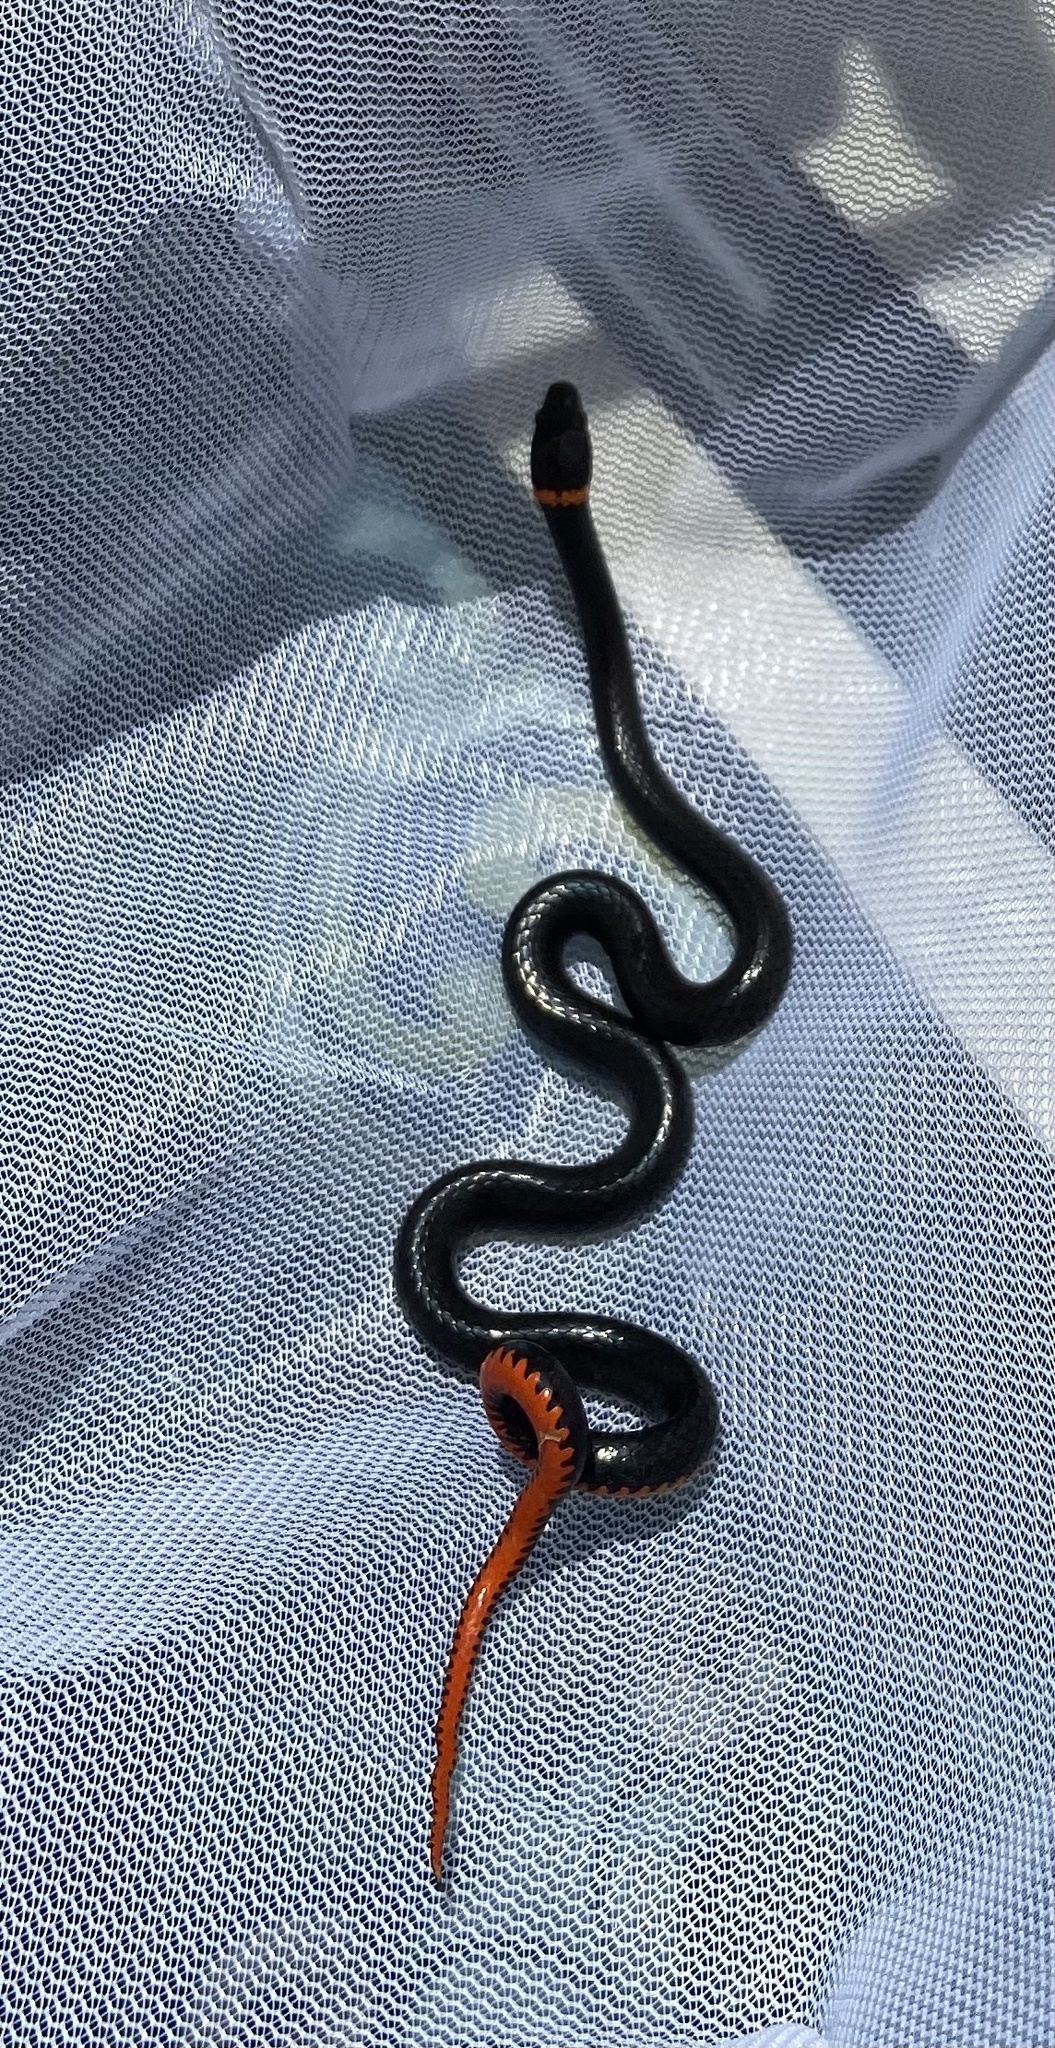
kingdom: Animalia
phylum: Chordata
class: Squamata
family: Colubridae
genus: Diadophis
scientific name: Diadophis punctatus
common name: Ringneck snake
